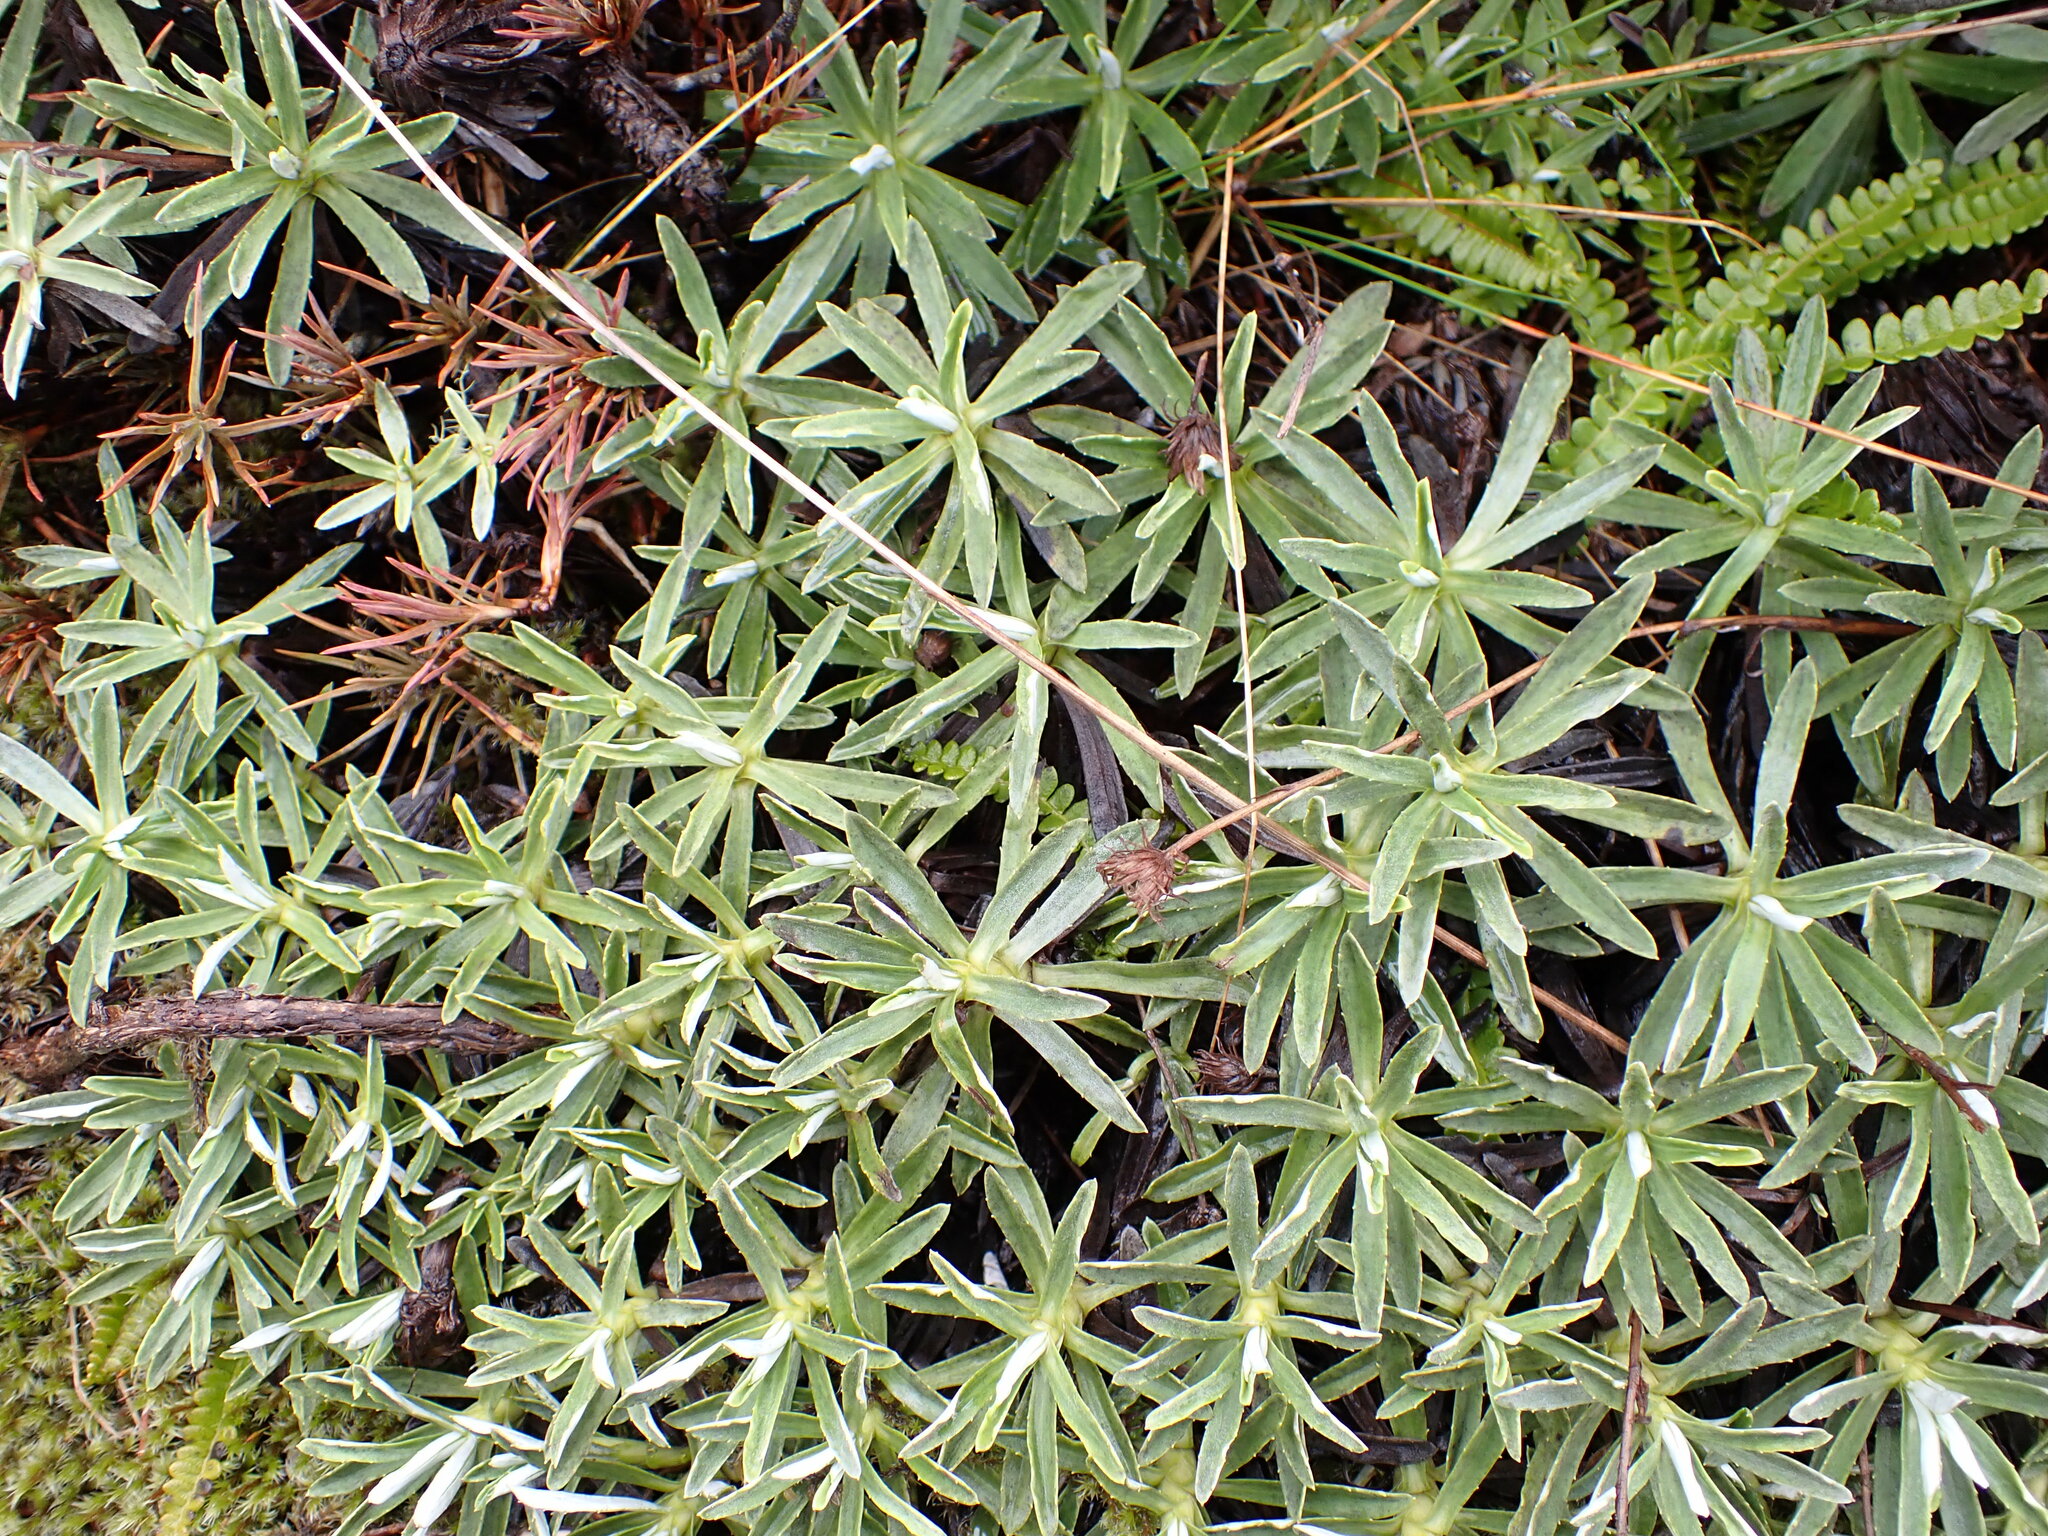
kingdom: Plantae
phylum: Tracheophyta
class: Magnoliopsida
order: Asterales
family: Asteraceae
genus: Celmisia
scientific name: Celmisia angustifolia
